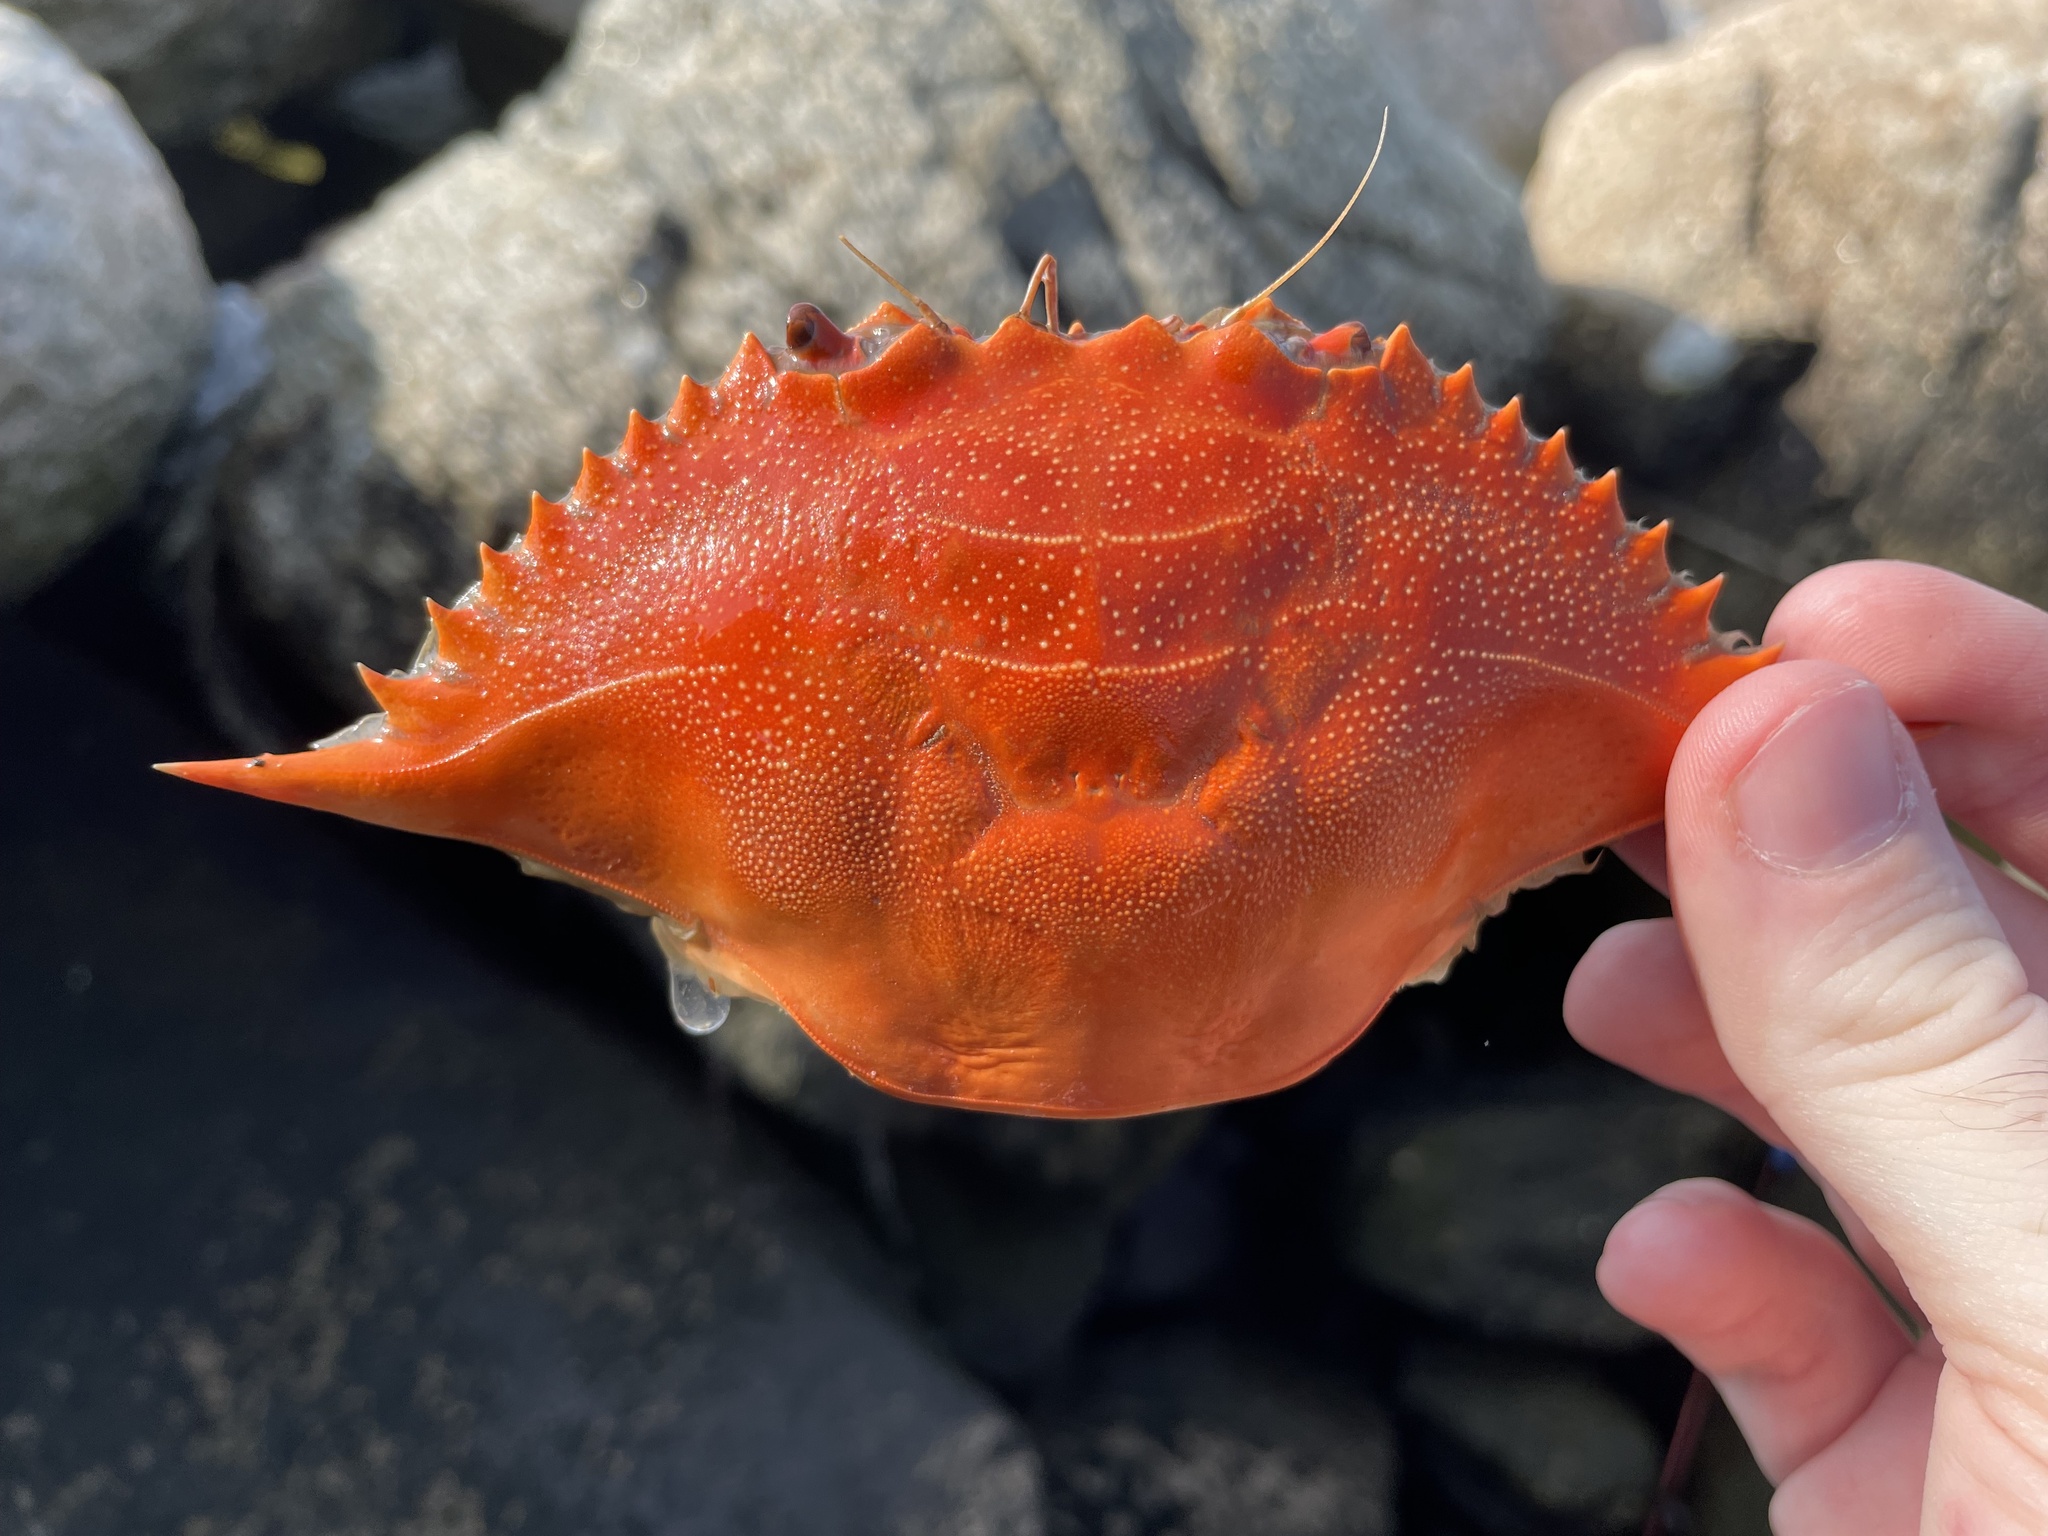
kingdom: Animalia
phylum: Arthropoda
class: Malacostraca
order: Decapoda
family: Portunidae
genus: Callinectes
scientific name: Callinectes sapidus
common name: Blue crab
